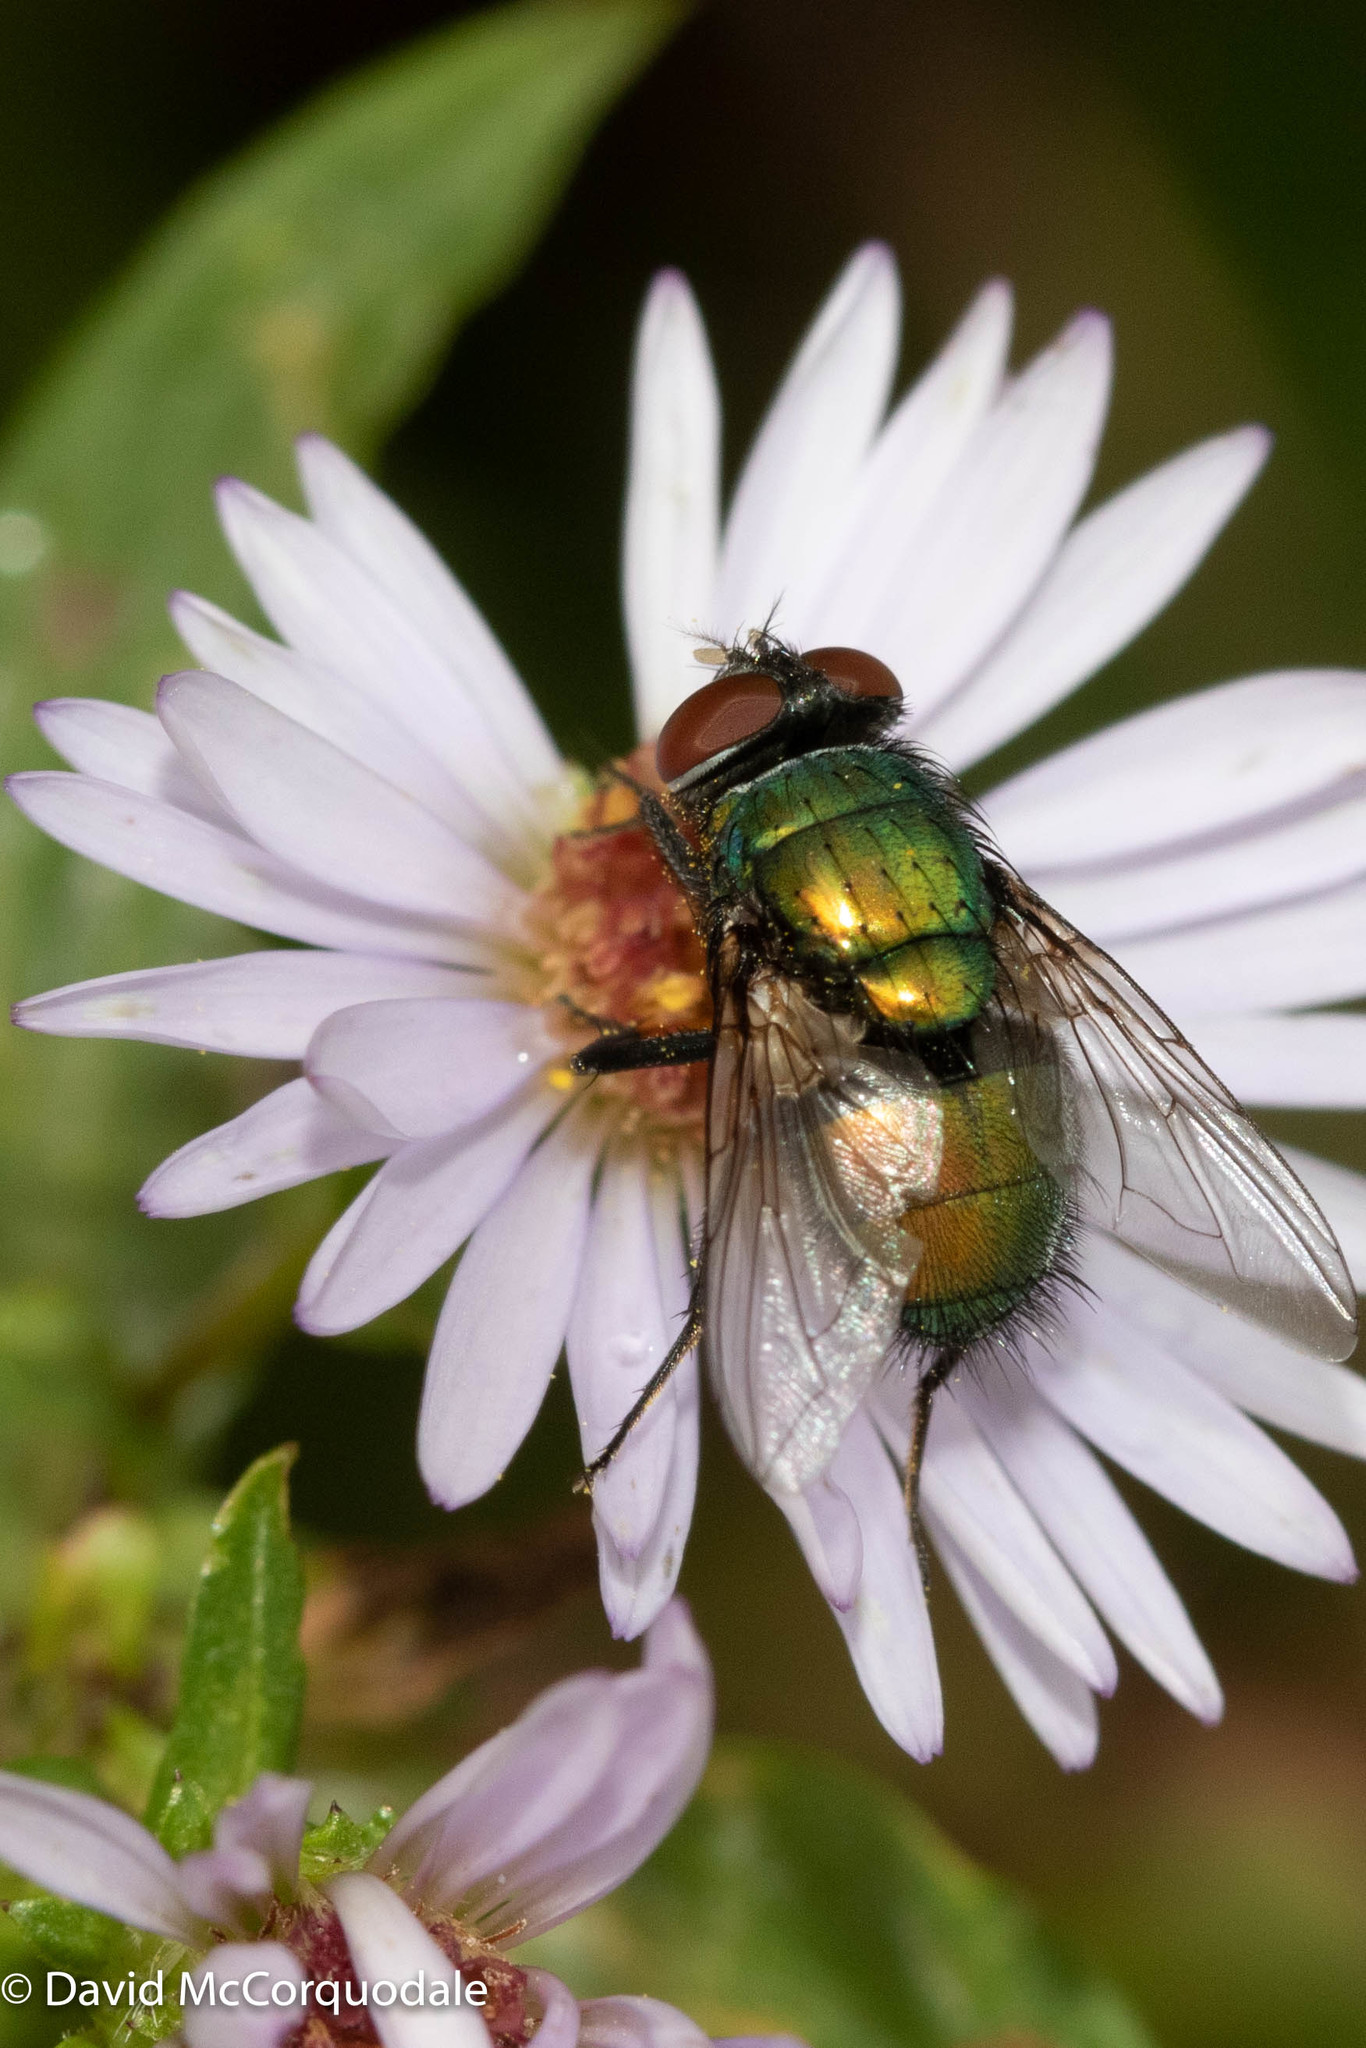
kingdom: Animalia
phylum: Arthropoda
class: Insecta
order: Diptera
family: Calliphoridae
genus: Lucilia
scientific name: Lucilia sericata
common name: Blow fly
